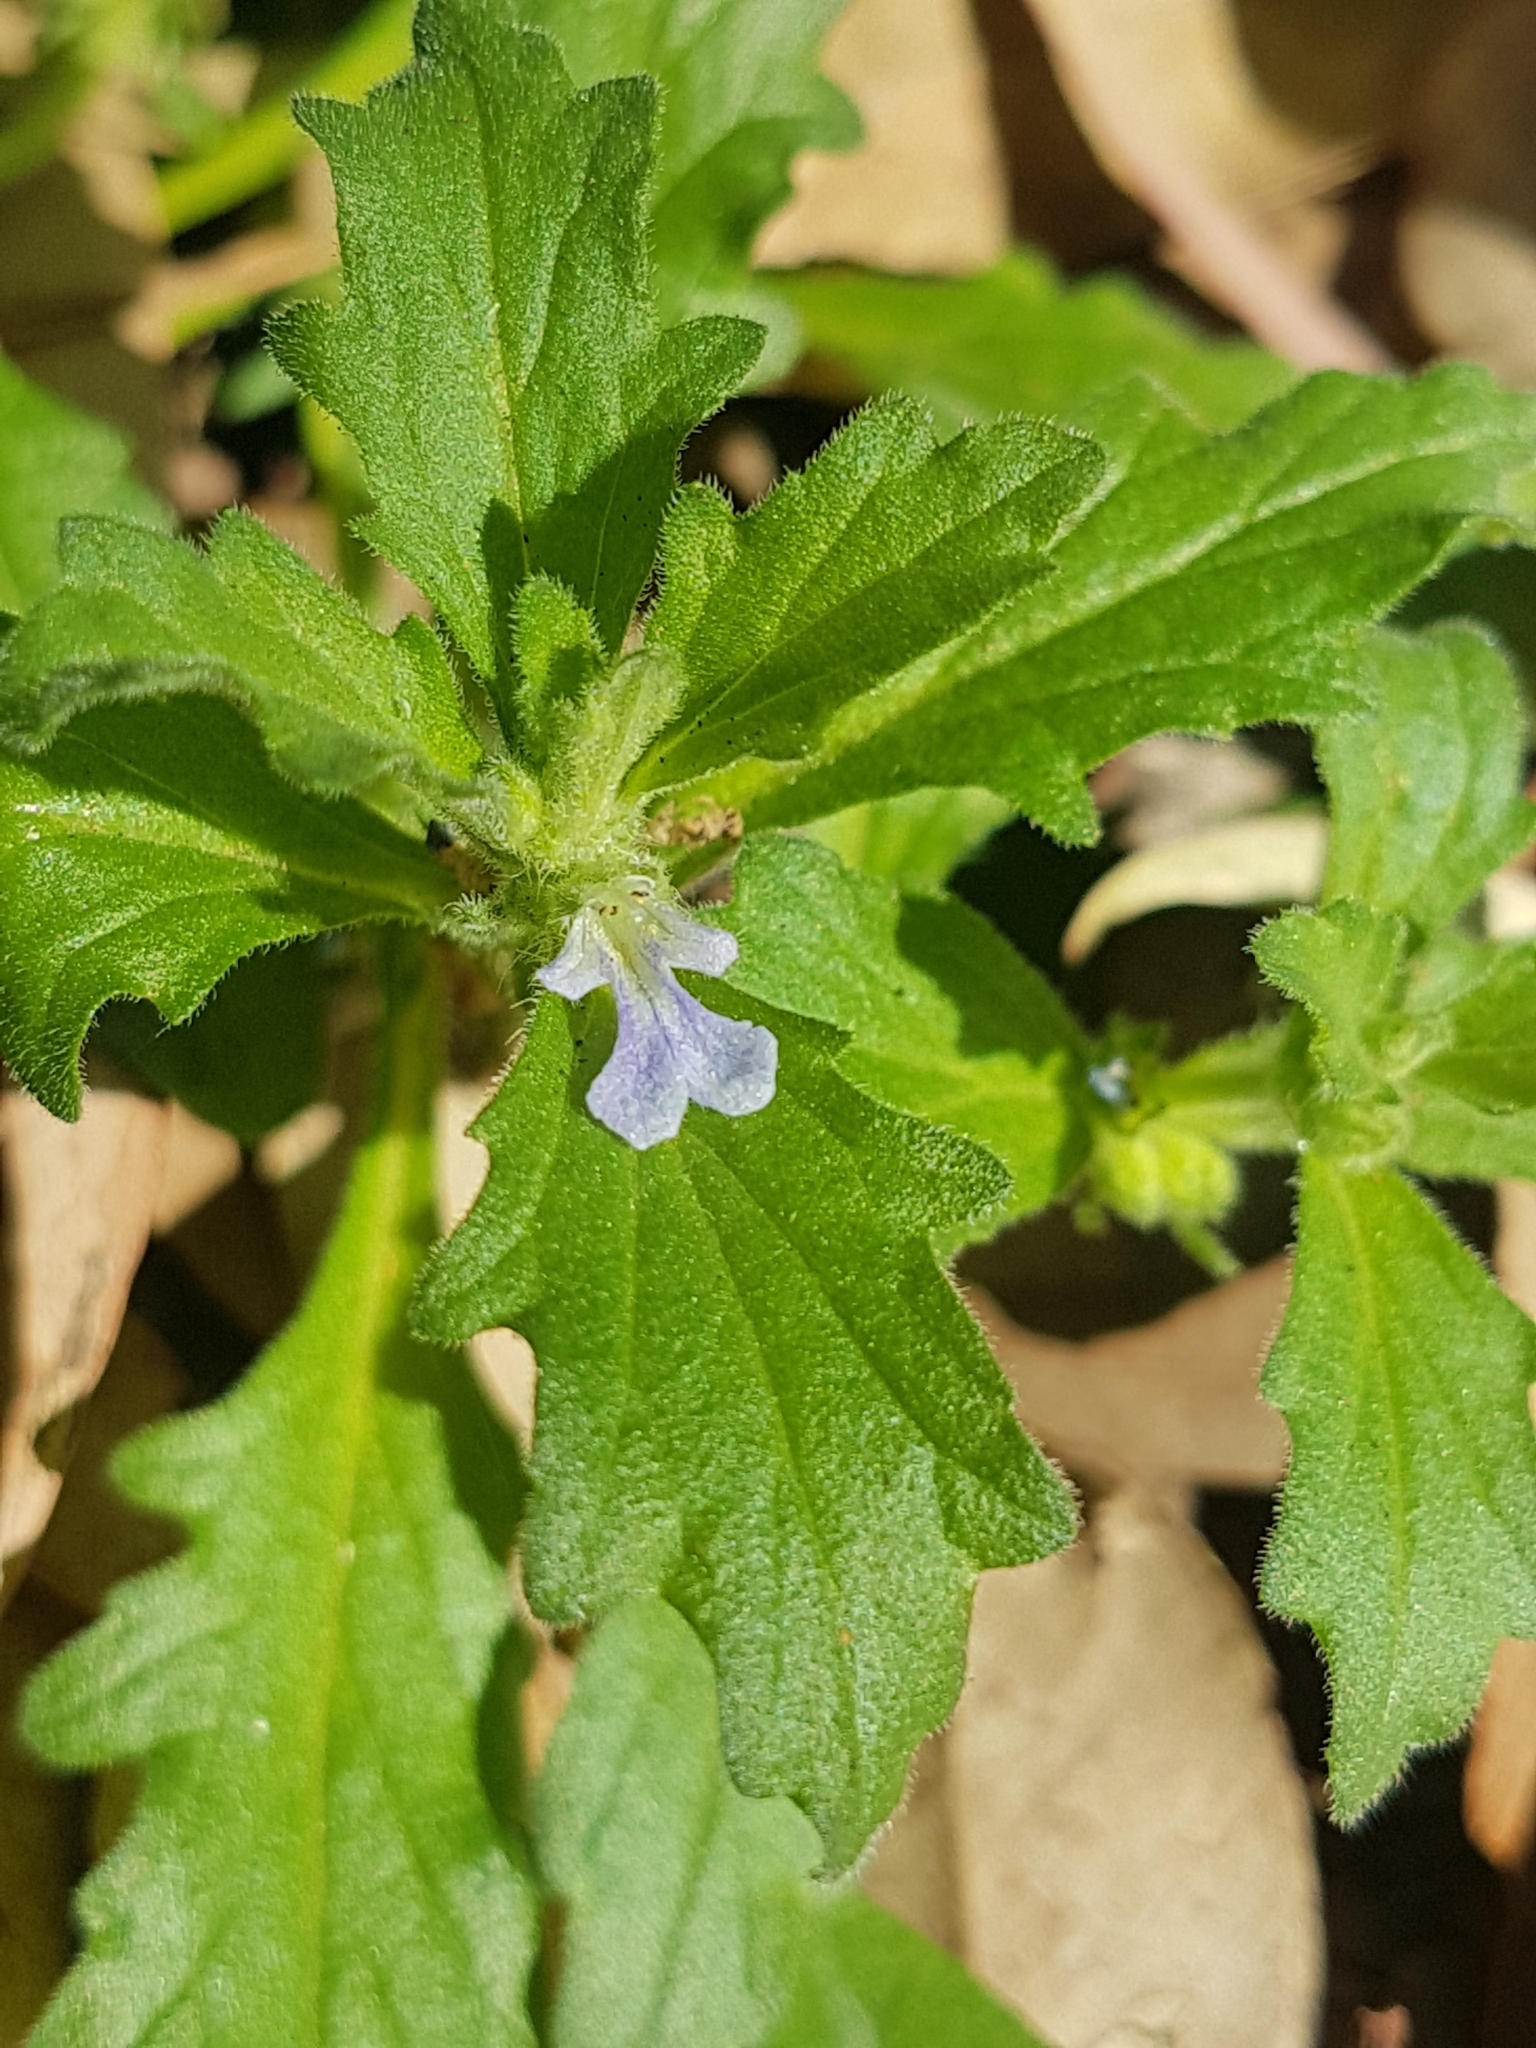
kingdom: Plantae
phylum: Tracheophyta
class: Magnoliopsida
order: Lamiales
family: Lamiaceae
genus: Ajuga
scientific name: Ajuga australis
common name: Australian bugle
